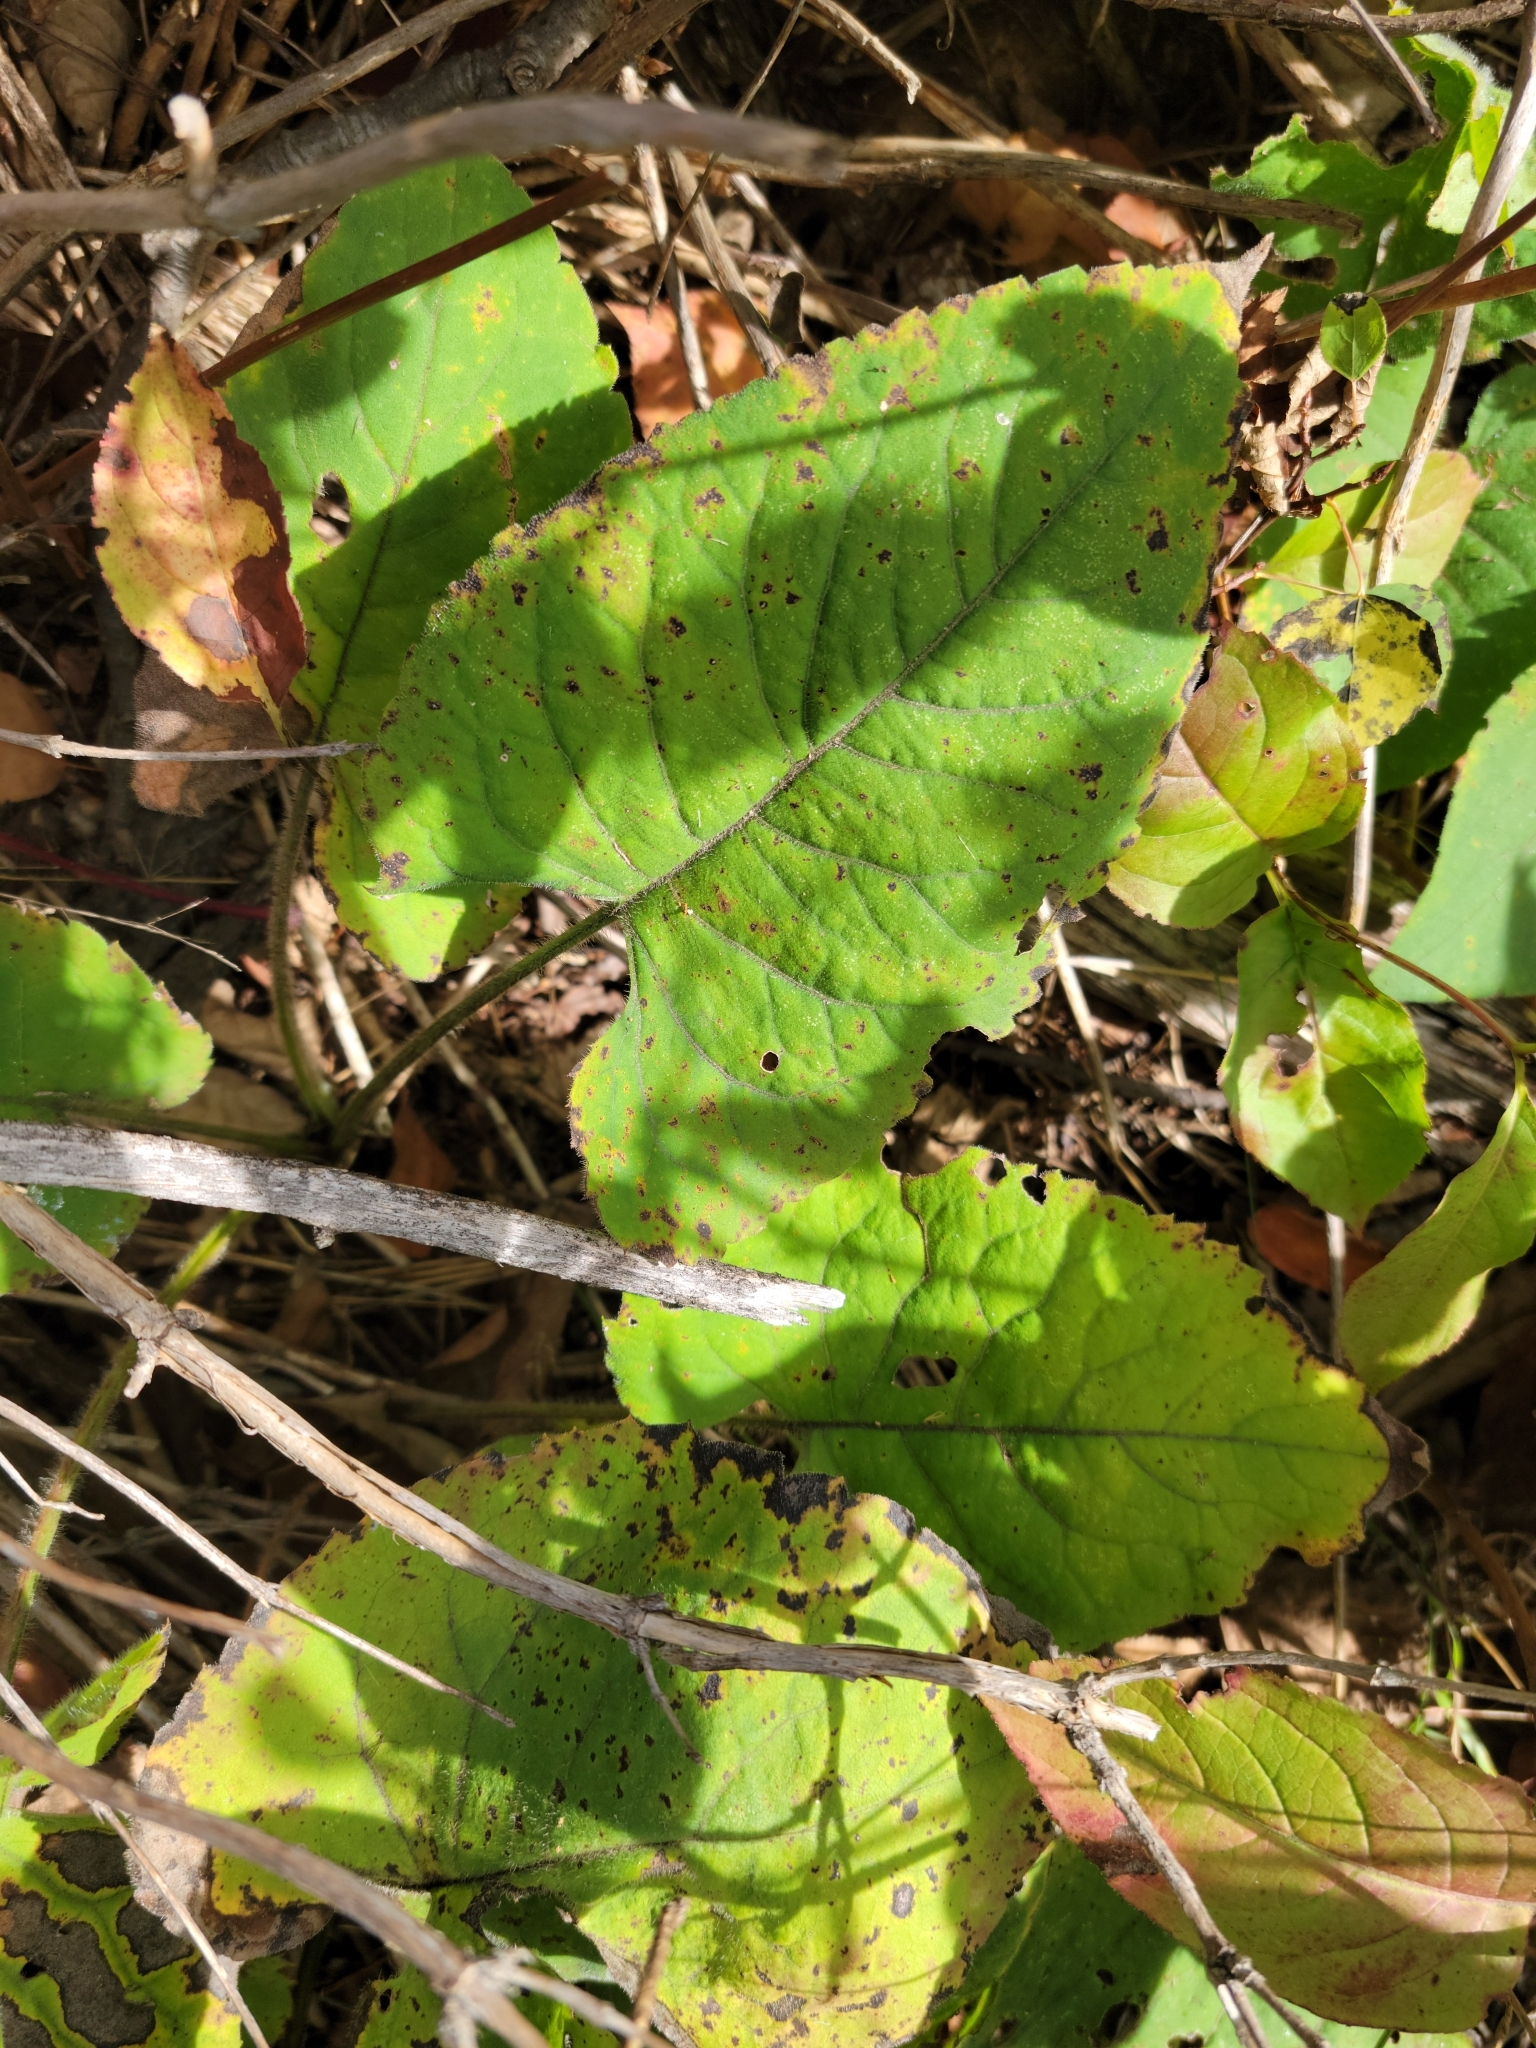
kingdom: Plantae
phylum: Tracheophyta
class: Magnoliopsida
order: Asterales
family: Asteraceae
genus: Eurybia
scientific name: Eurybia macrophylla
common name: Big-leaved aster
